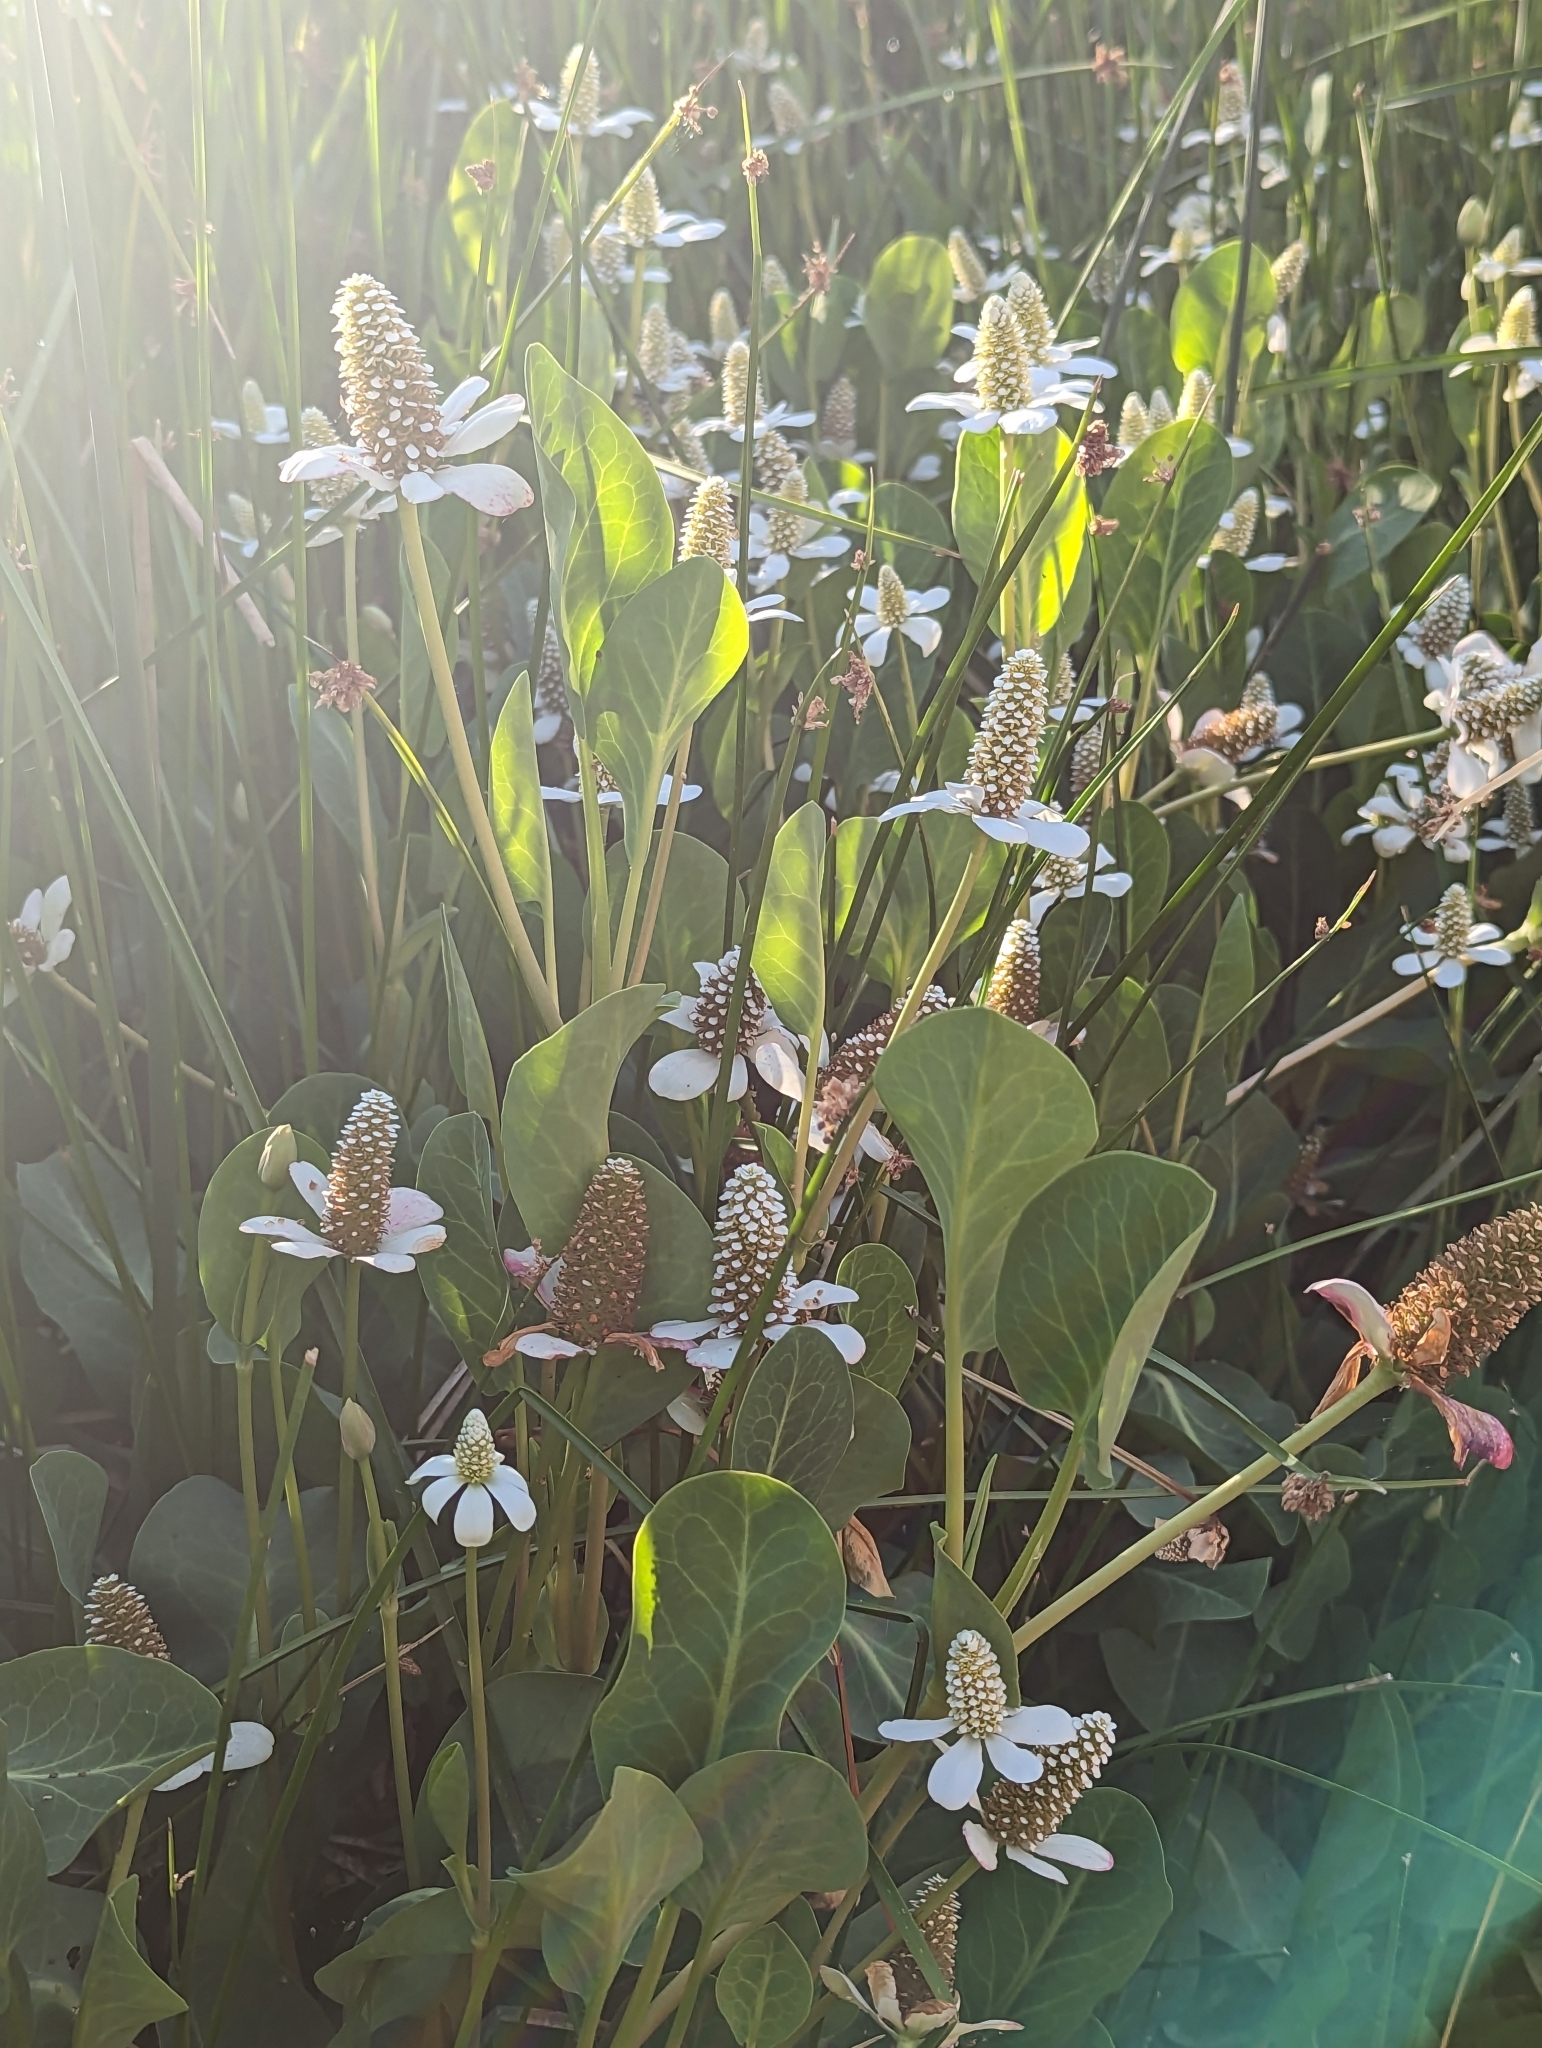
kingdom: Plantae
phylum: Tracheophyta
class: Magnoliopsida
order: Piperales
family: Saururaceae
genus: Anemopsis
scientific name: Anemopsis californica
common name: Apache-beads
